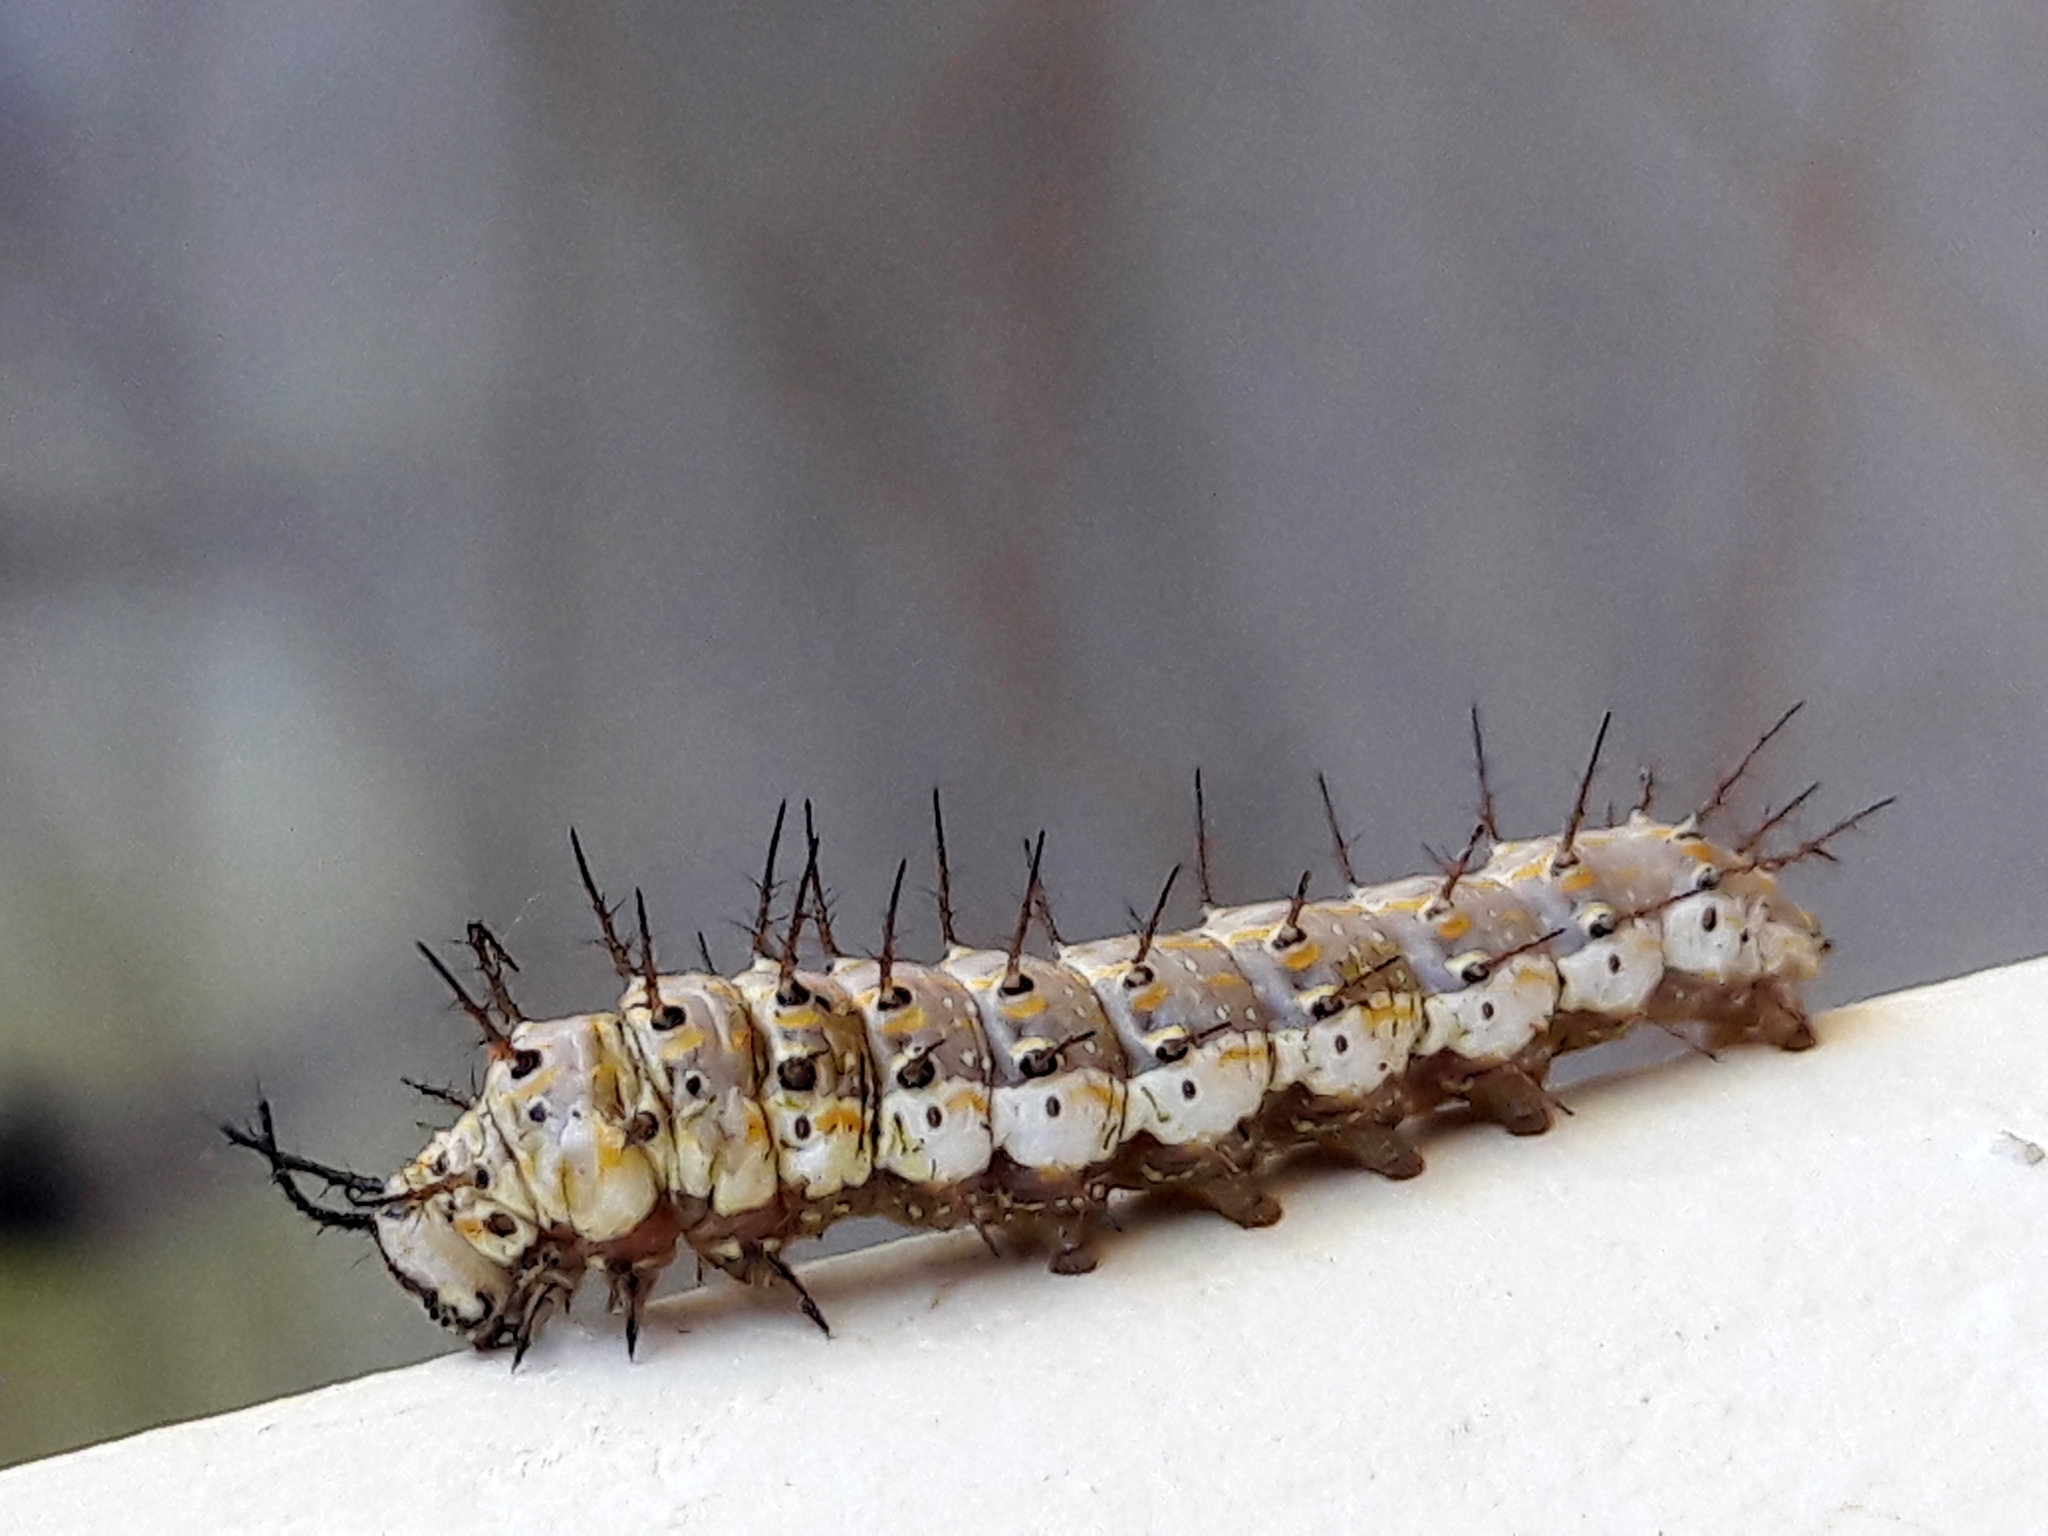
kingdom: Animalia
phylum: Arthropoda
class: Insecta
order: Lepidoptera
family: Nymphalidae
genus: Dione
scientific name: Dione vanillae
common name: Gulf fritillary
